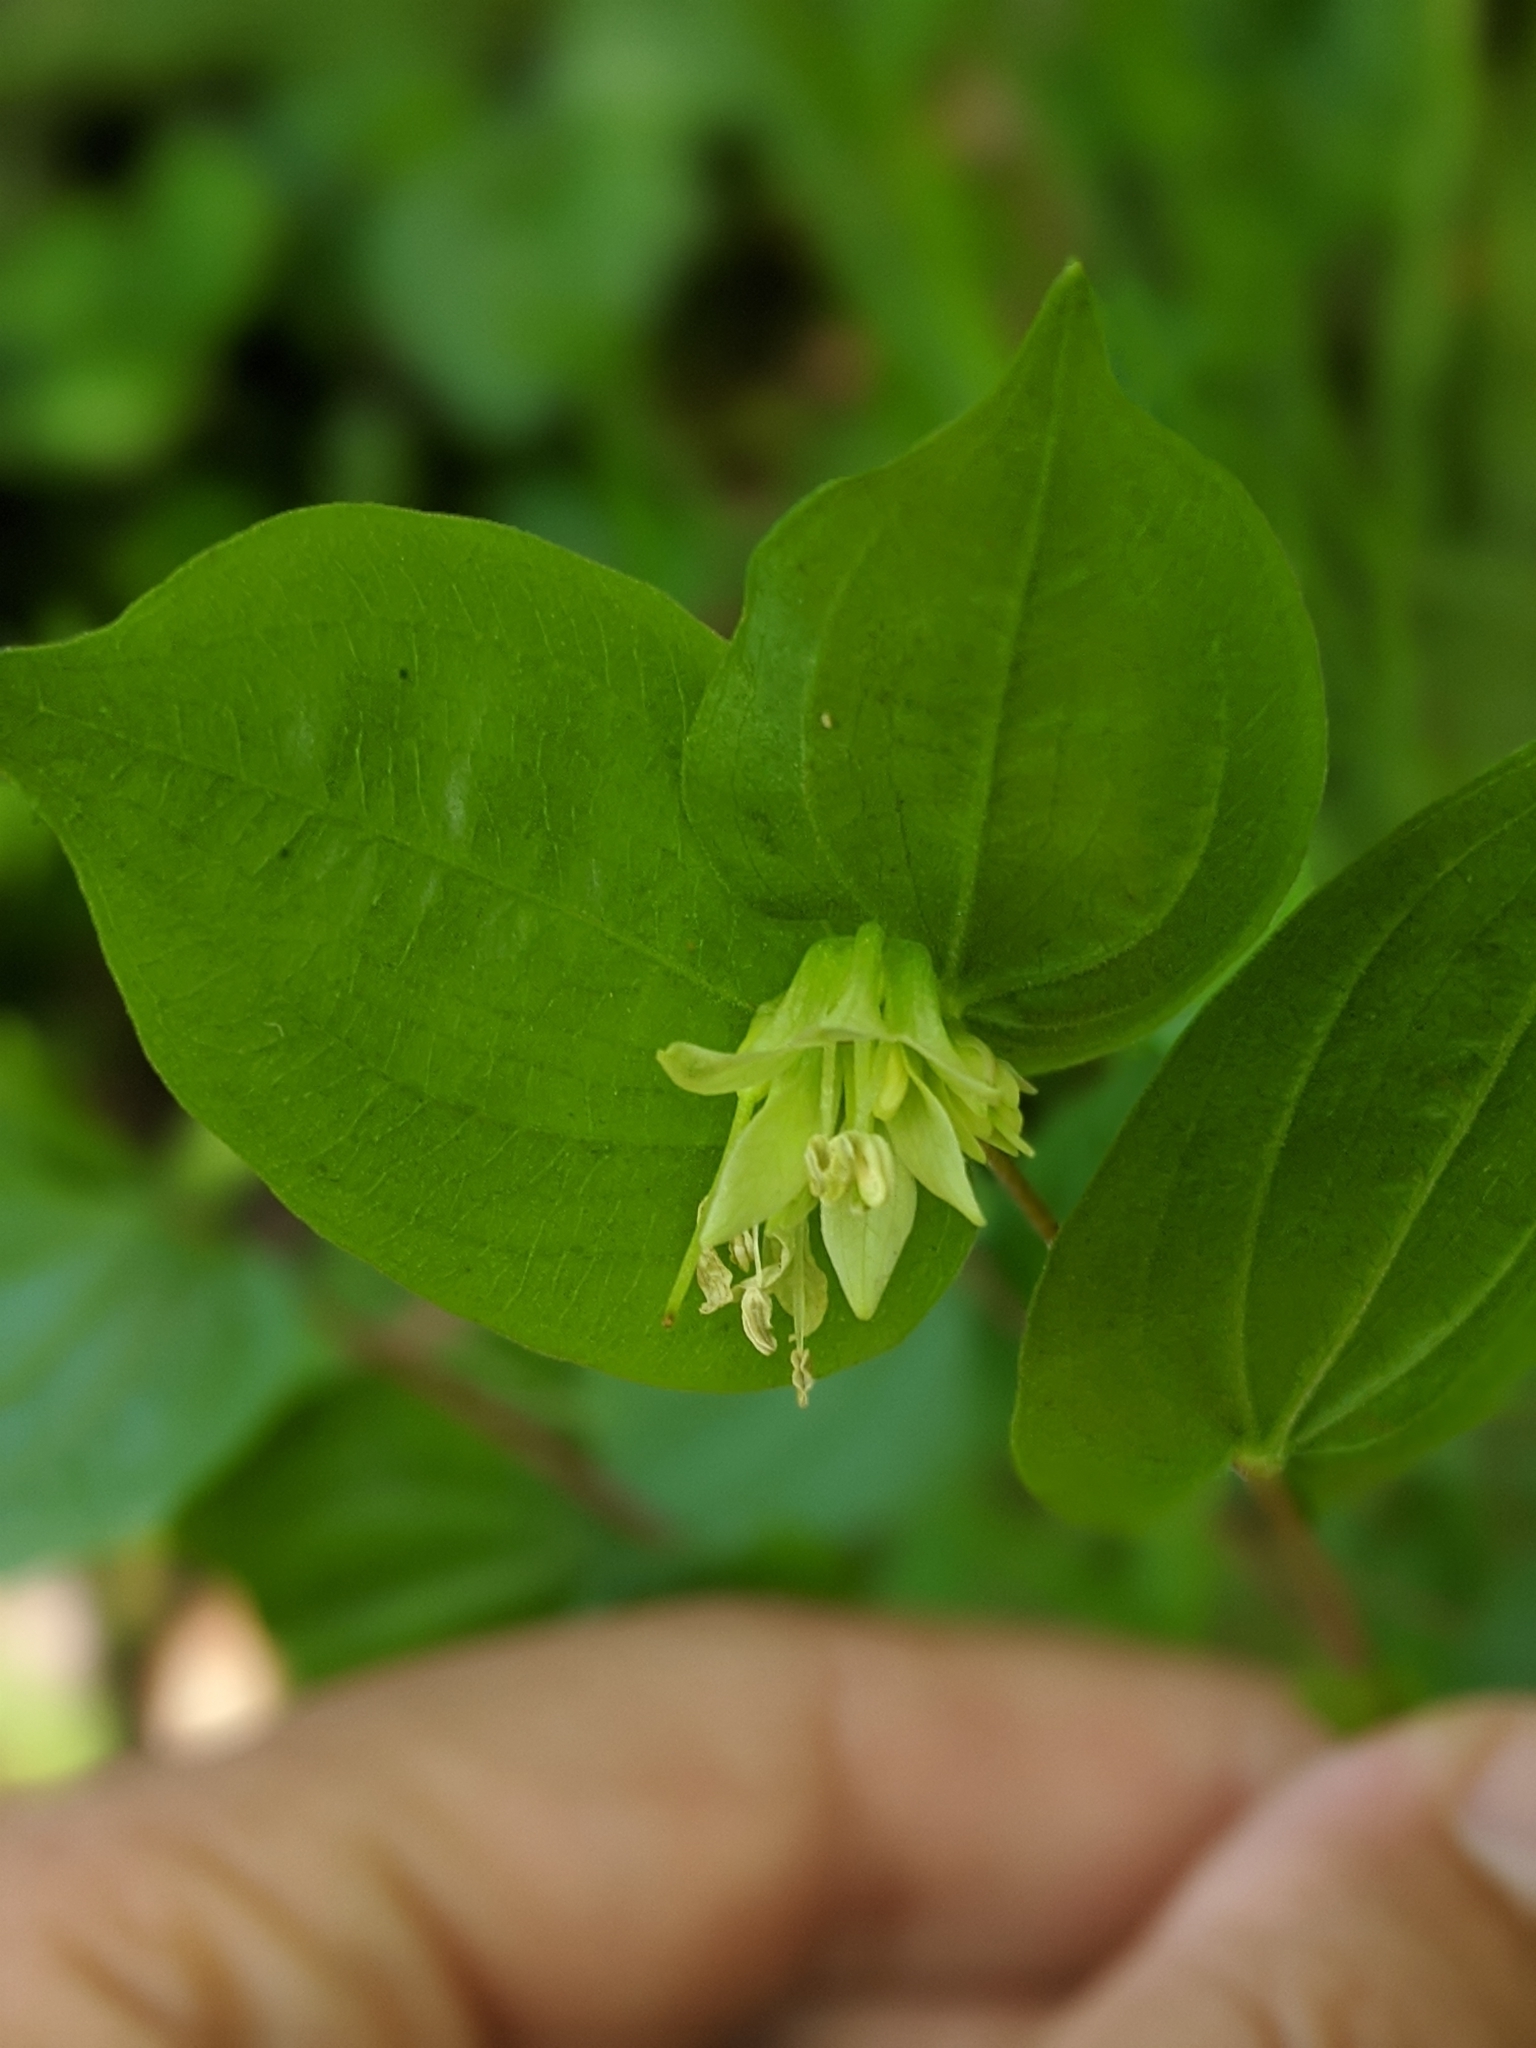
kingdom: Plantae
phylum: Tracheophyta
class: Liliopsida
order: Liliales
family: Liliaceae
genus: Prosartes
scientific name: Prosartes hookeri
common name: Fairy-bells
